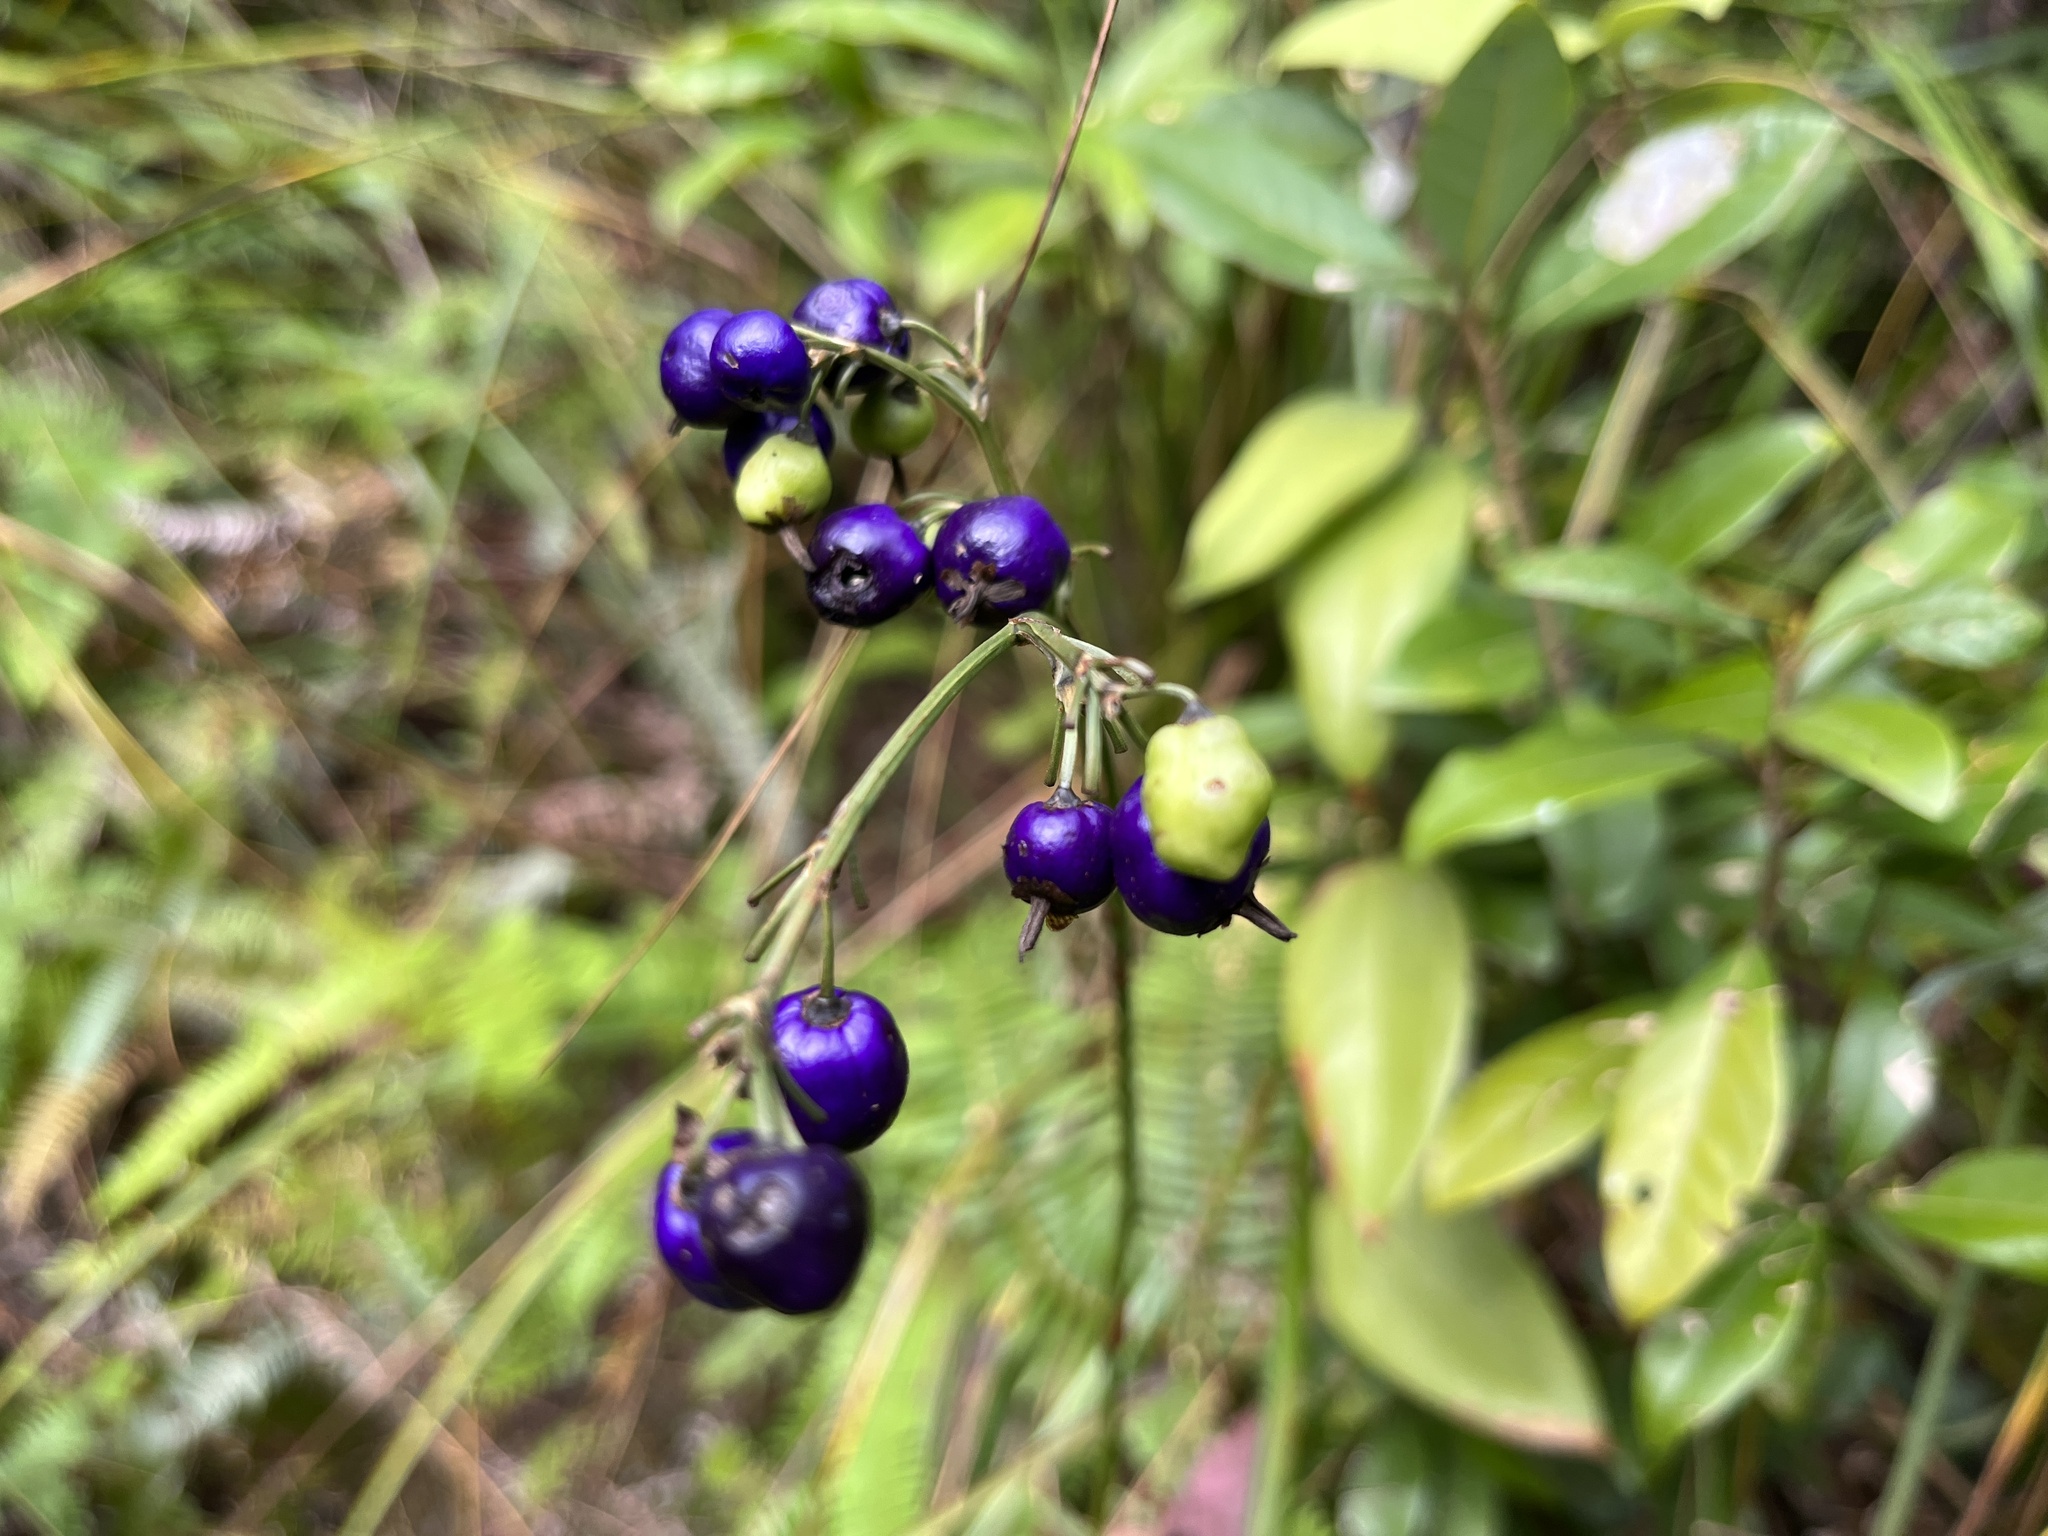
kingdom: Plantae
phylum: Tracheophyta
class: Liliopsida
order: Asparagales
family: Asphodelaceae
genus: Dianella
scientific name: Dianella ensifolia
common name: New zealand lilyplant
